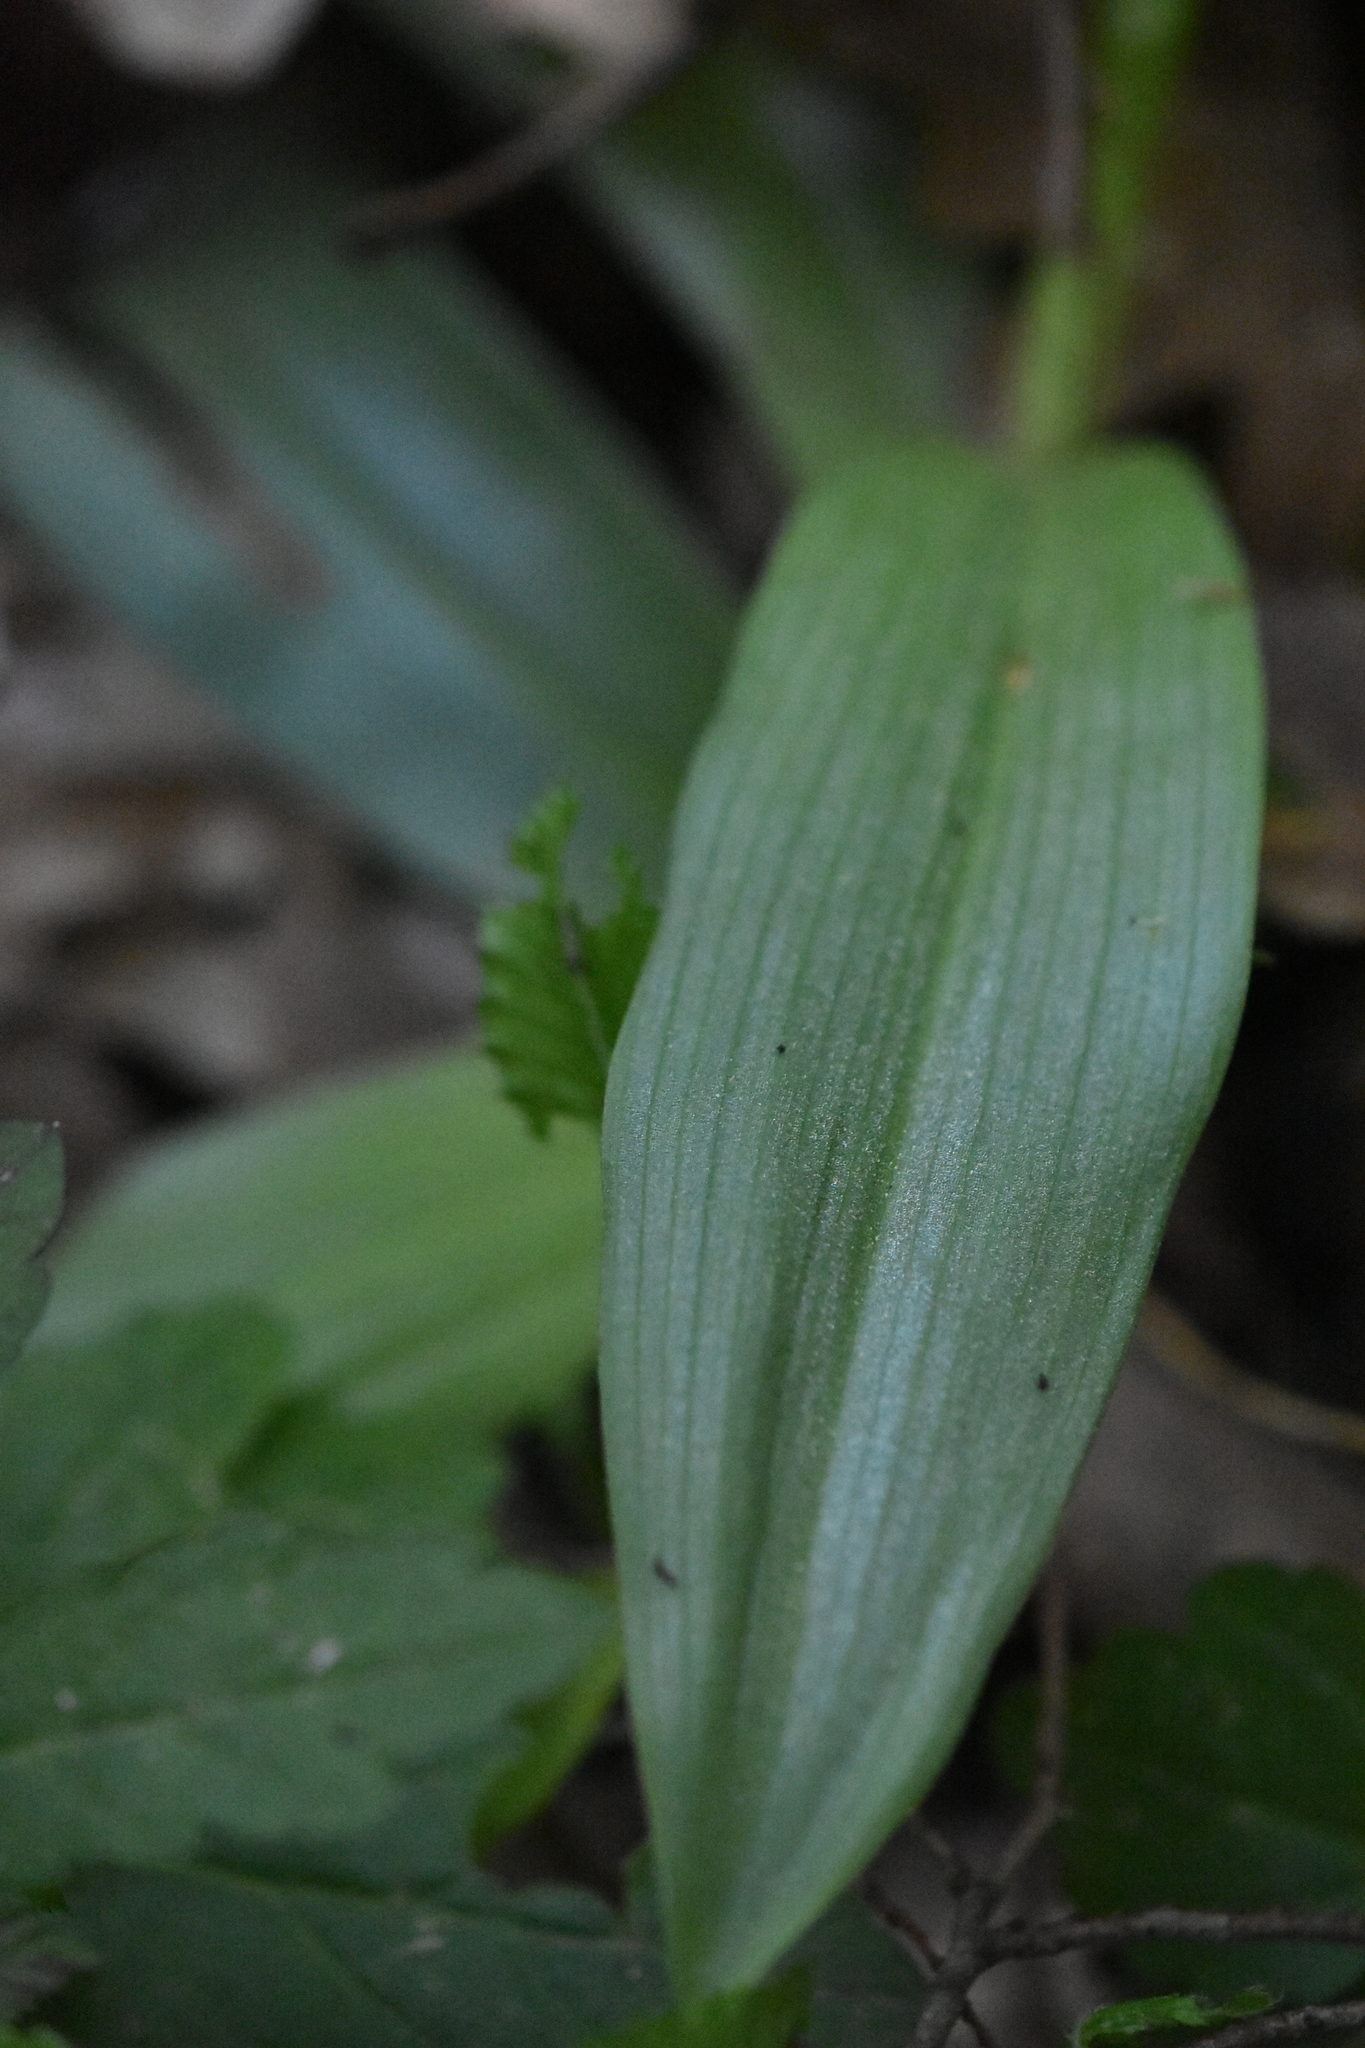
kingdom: Plantae
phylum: Tracheophyta
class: Liliopsida
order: Asparagales
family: Orchidaceae
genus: Orchis
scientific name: Orchis punctulata
